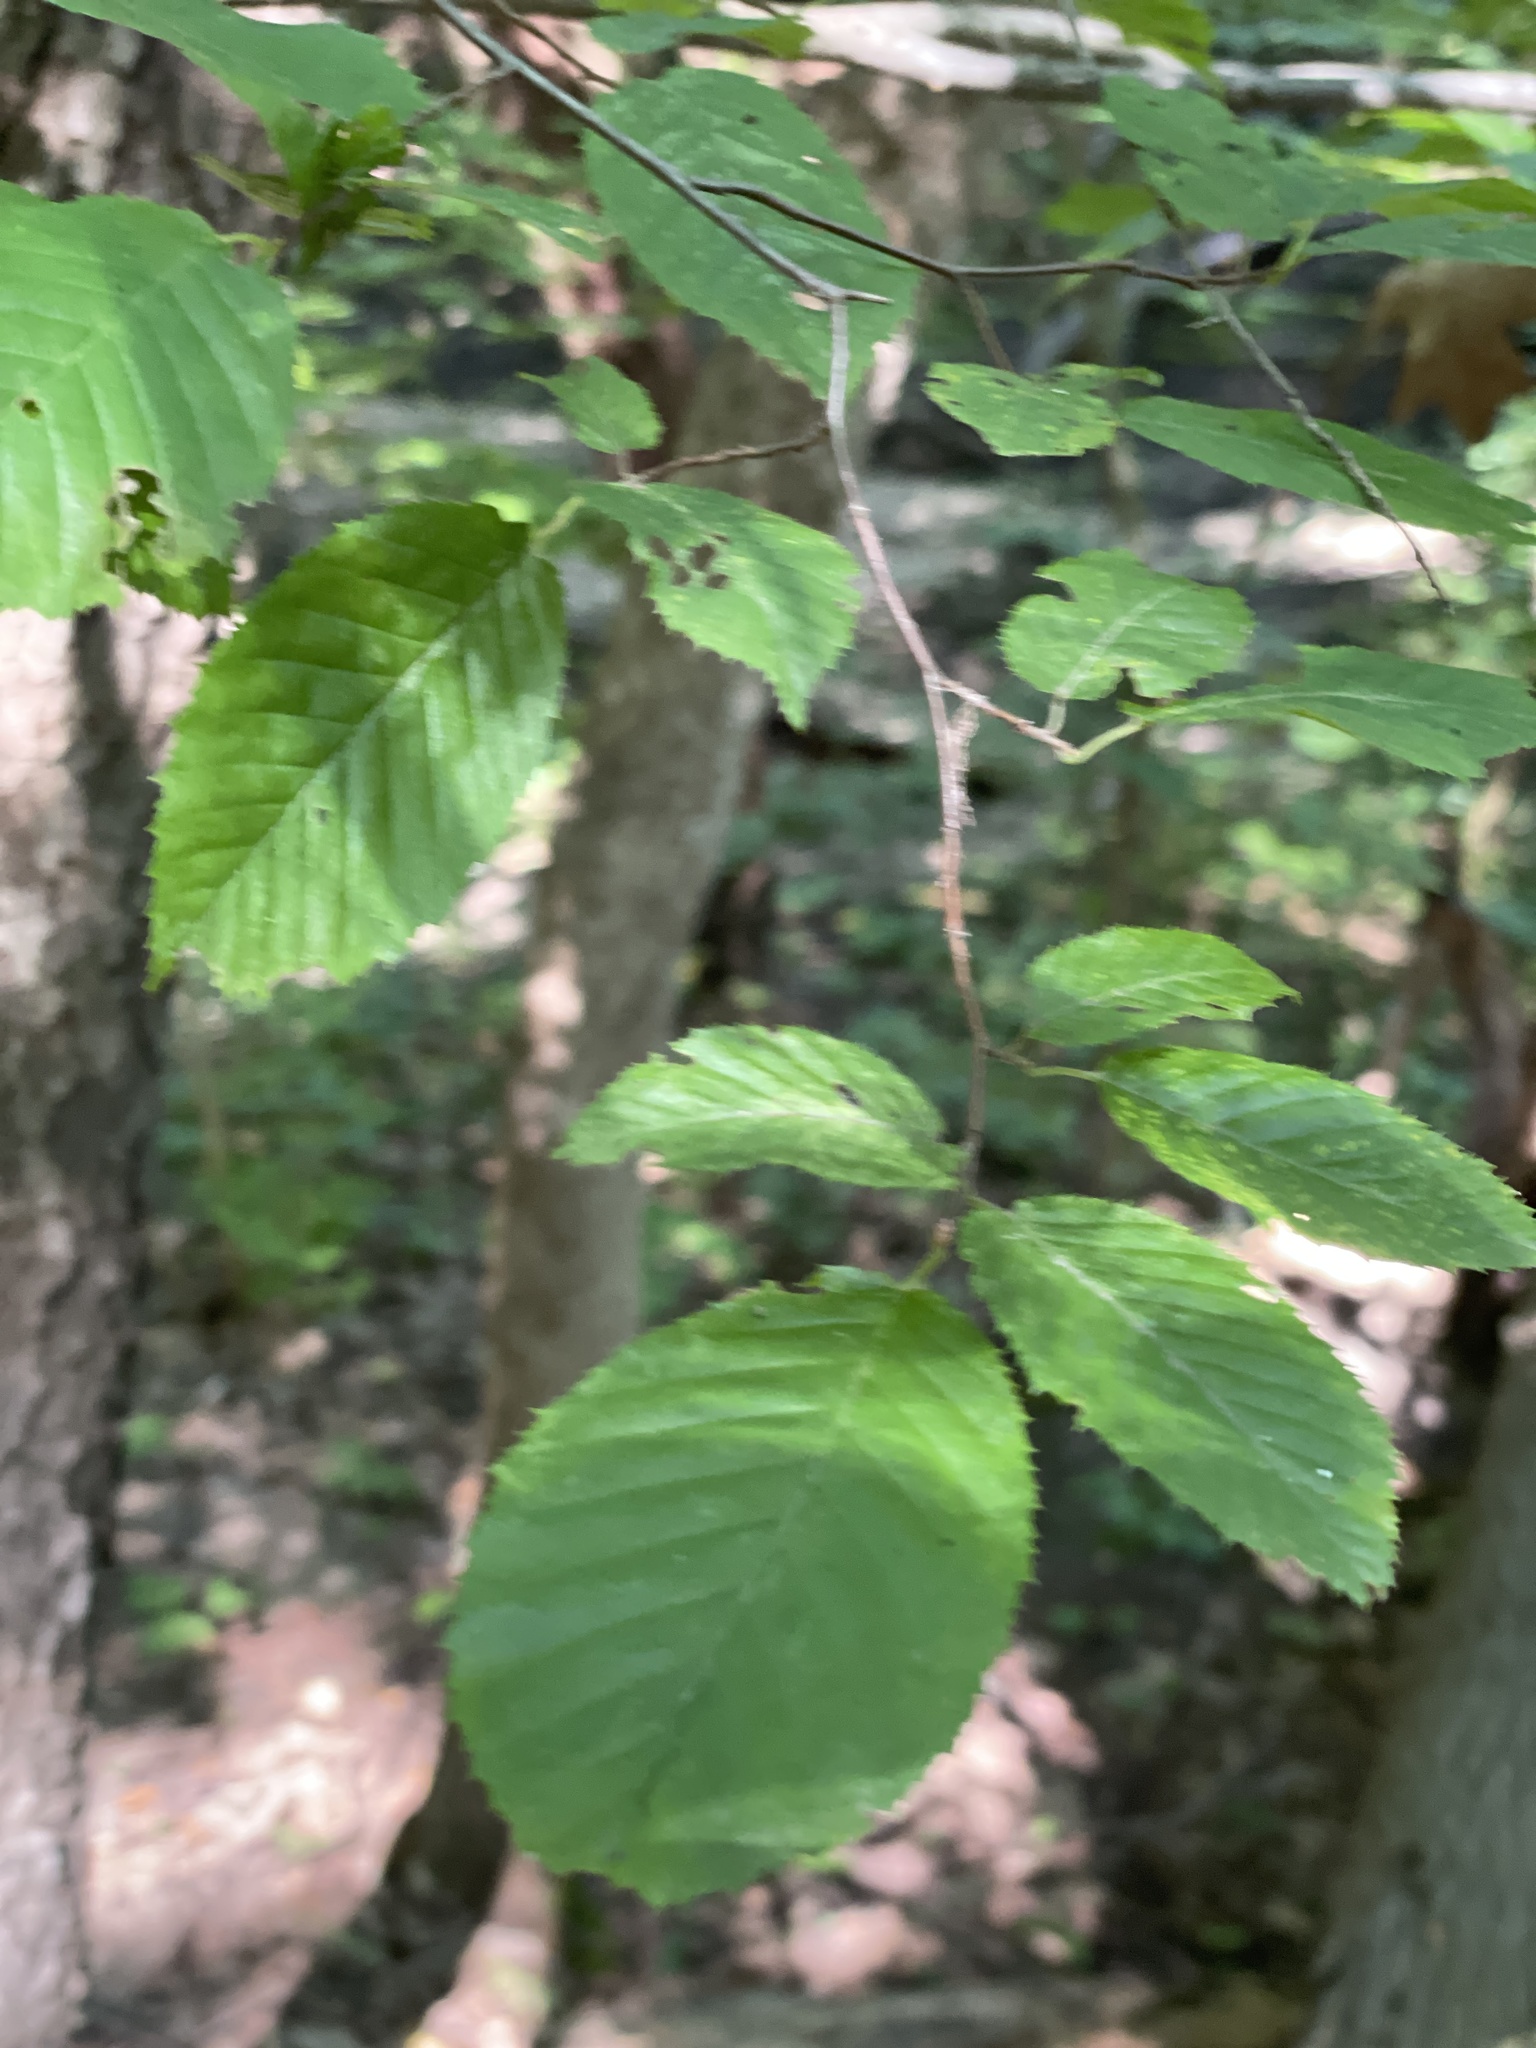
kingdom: Plantae
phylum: Tracheophyta
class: Magnoliopsida
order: Fagales
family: Betulaceae
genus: Carpinus
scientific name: Carpinus caroliniana
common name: American hornbeam
